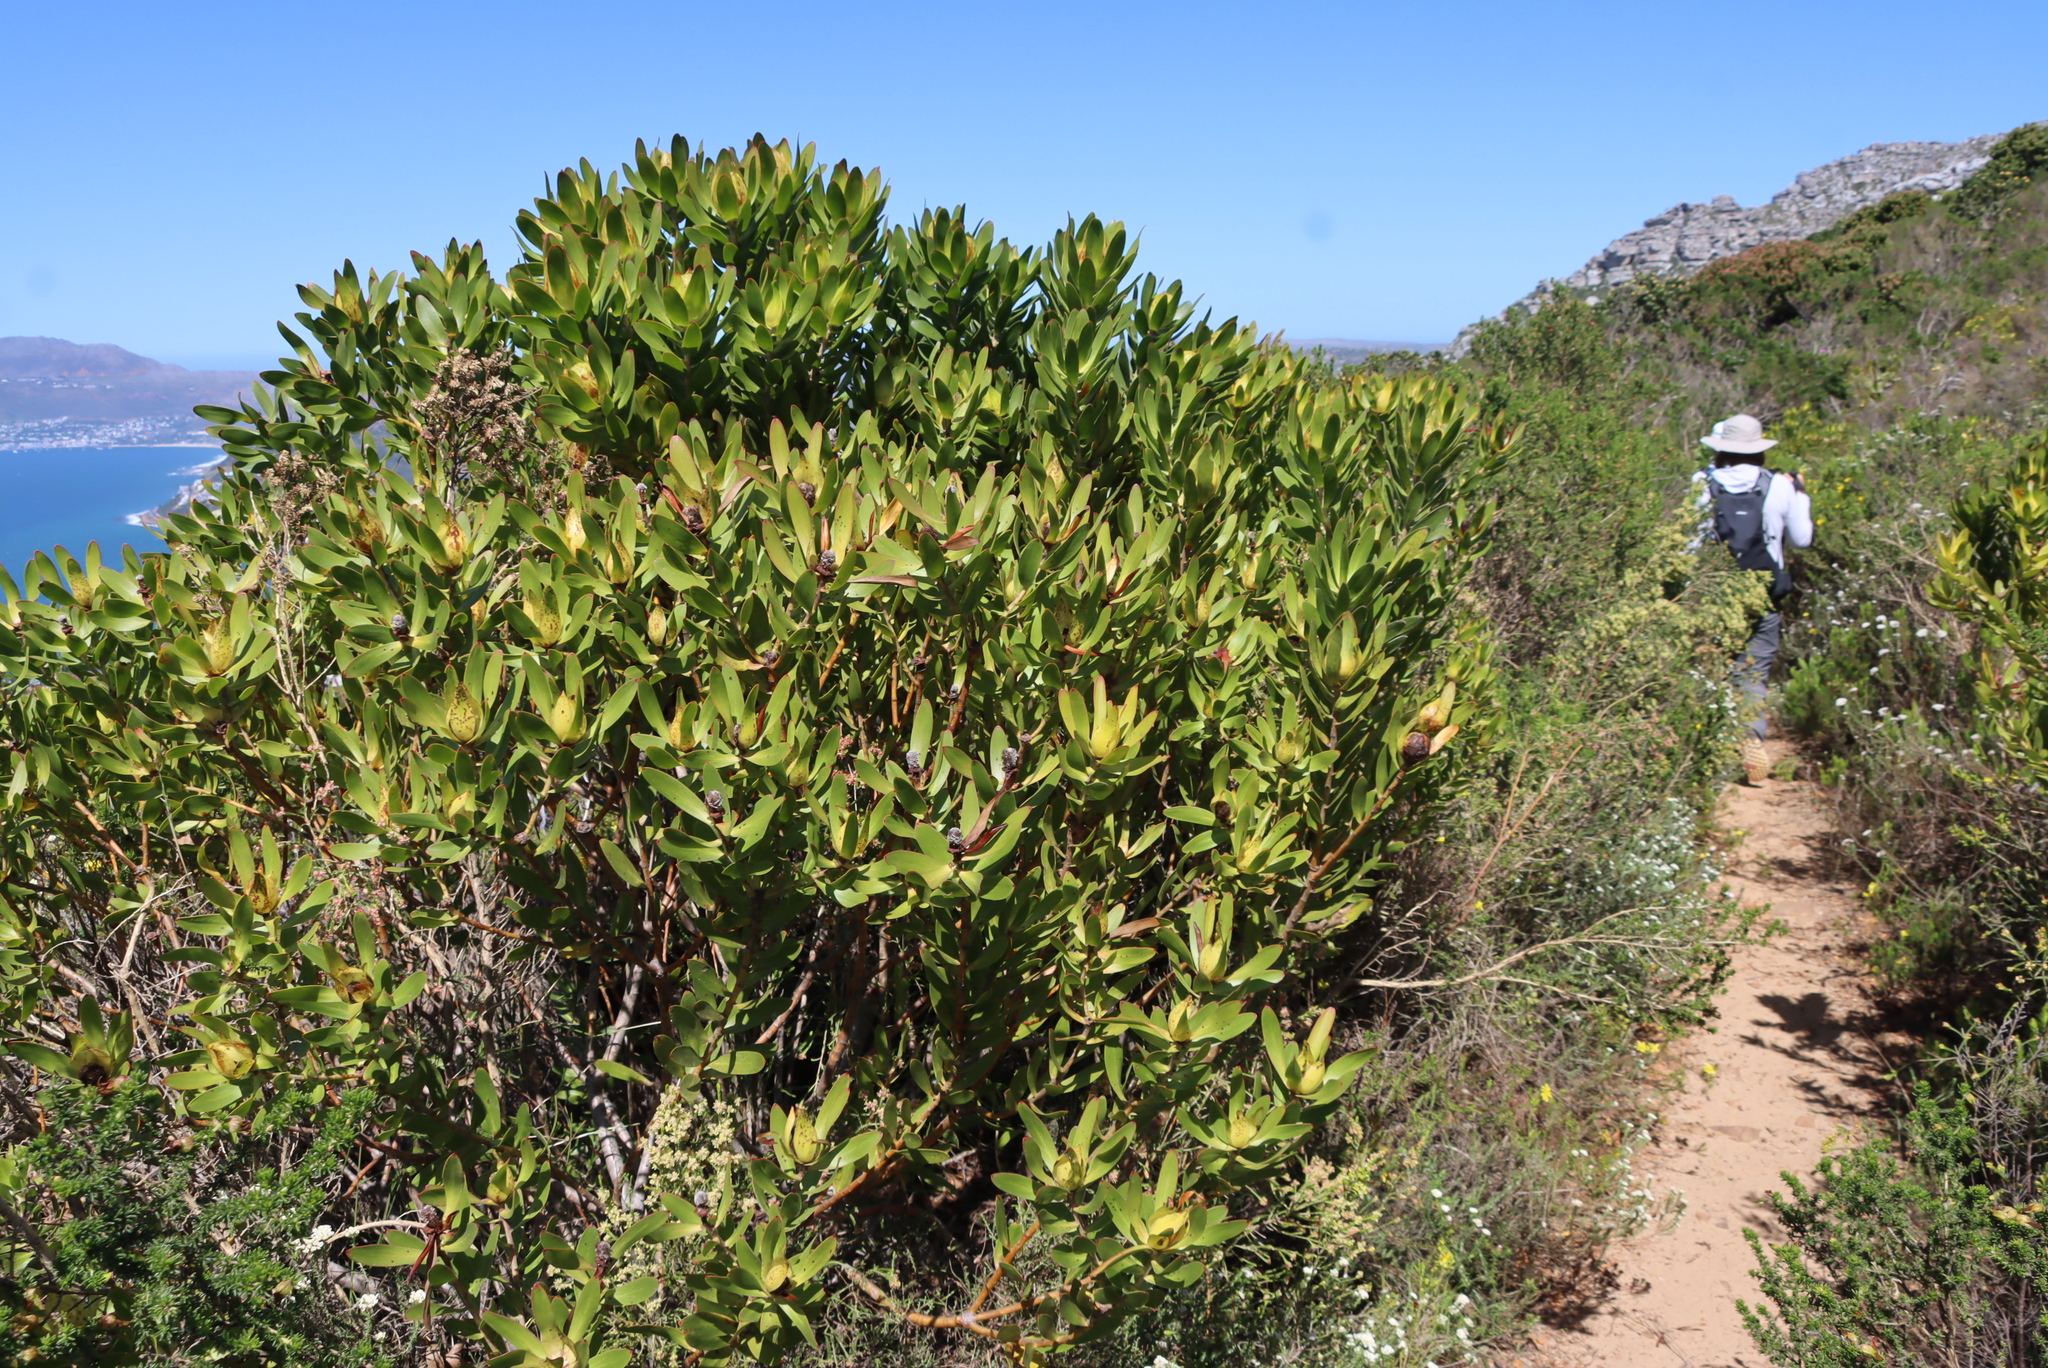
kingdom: Plantae
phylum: Tracheophyta
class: Magnoliopsida
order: Proteales
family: Proteaceae
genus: Leucadendron
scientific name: Leucadendron laureolum
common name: Golden sunshinebush
